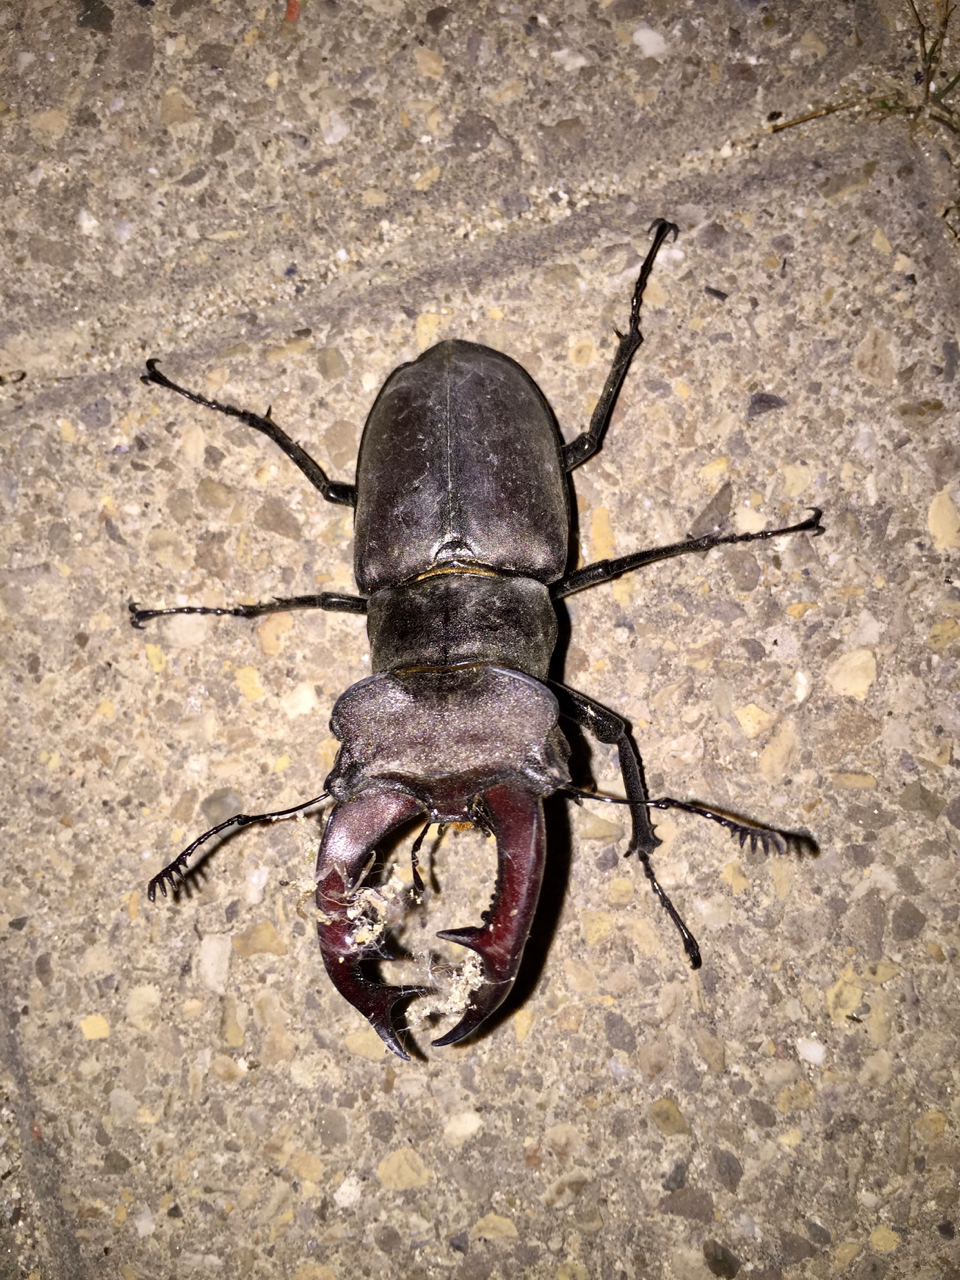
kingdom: Animalia
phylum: Arthropoda
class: Insecta
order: Coleoptera
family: Lucanidae
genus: Lucanus
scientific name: Lucanus cervus
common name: Stag beetle
